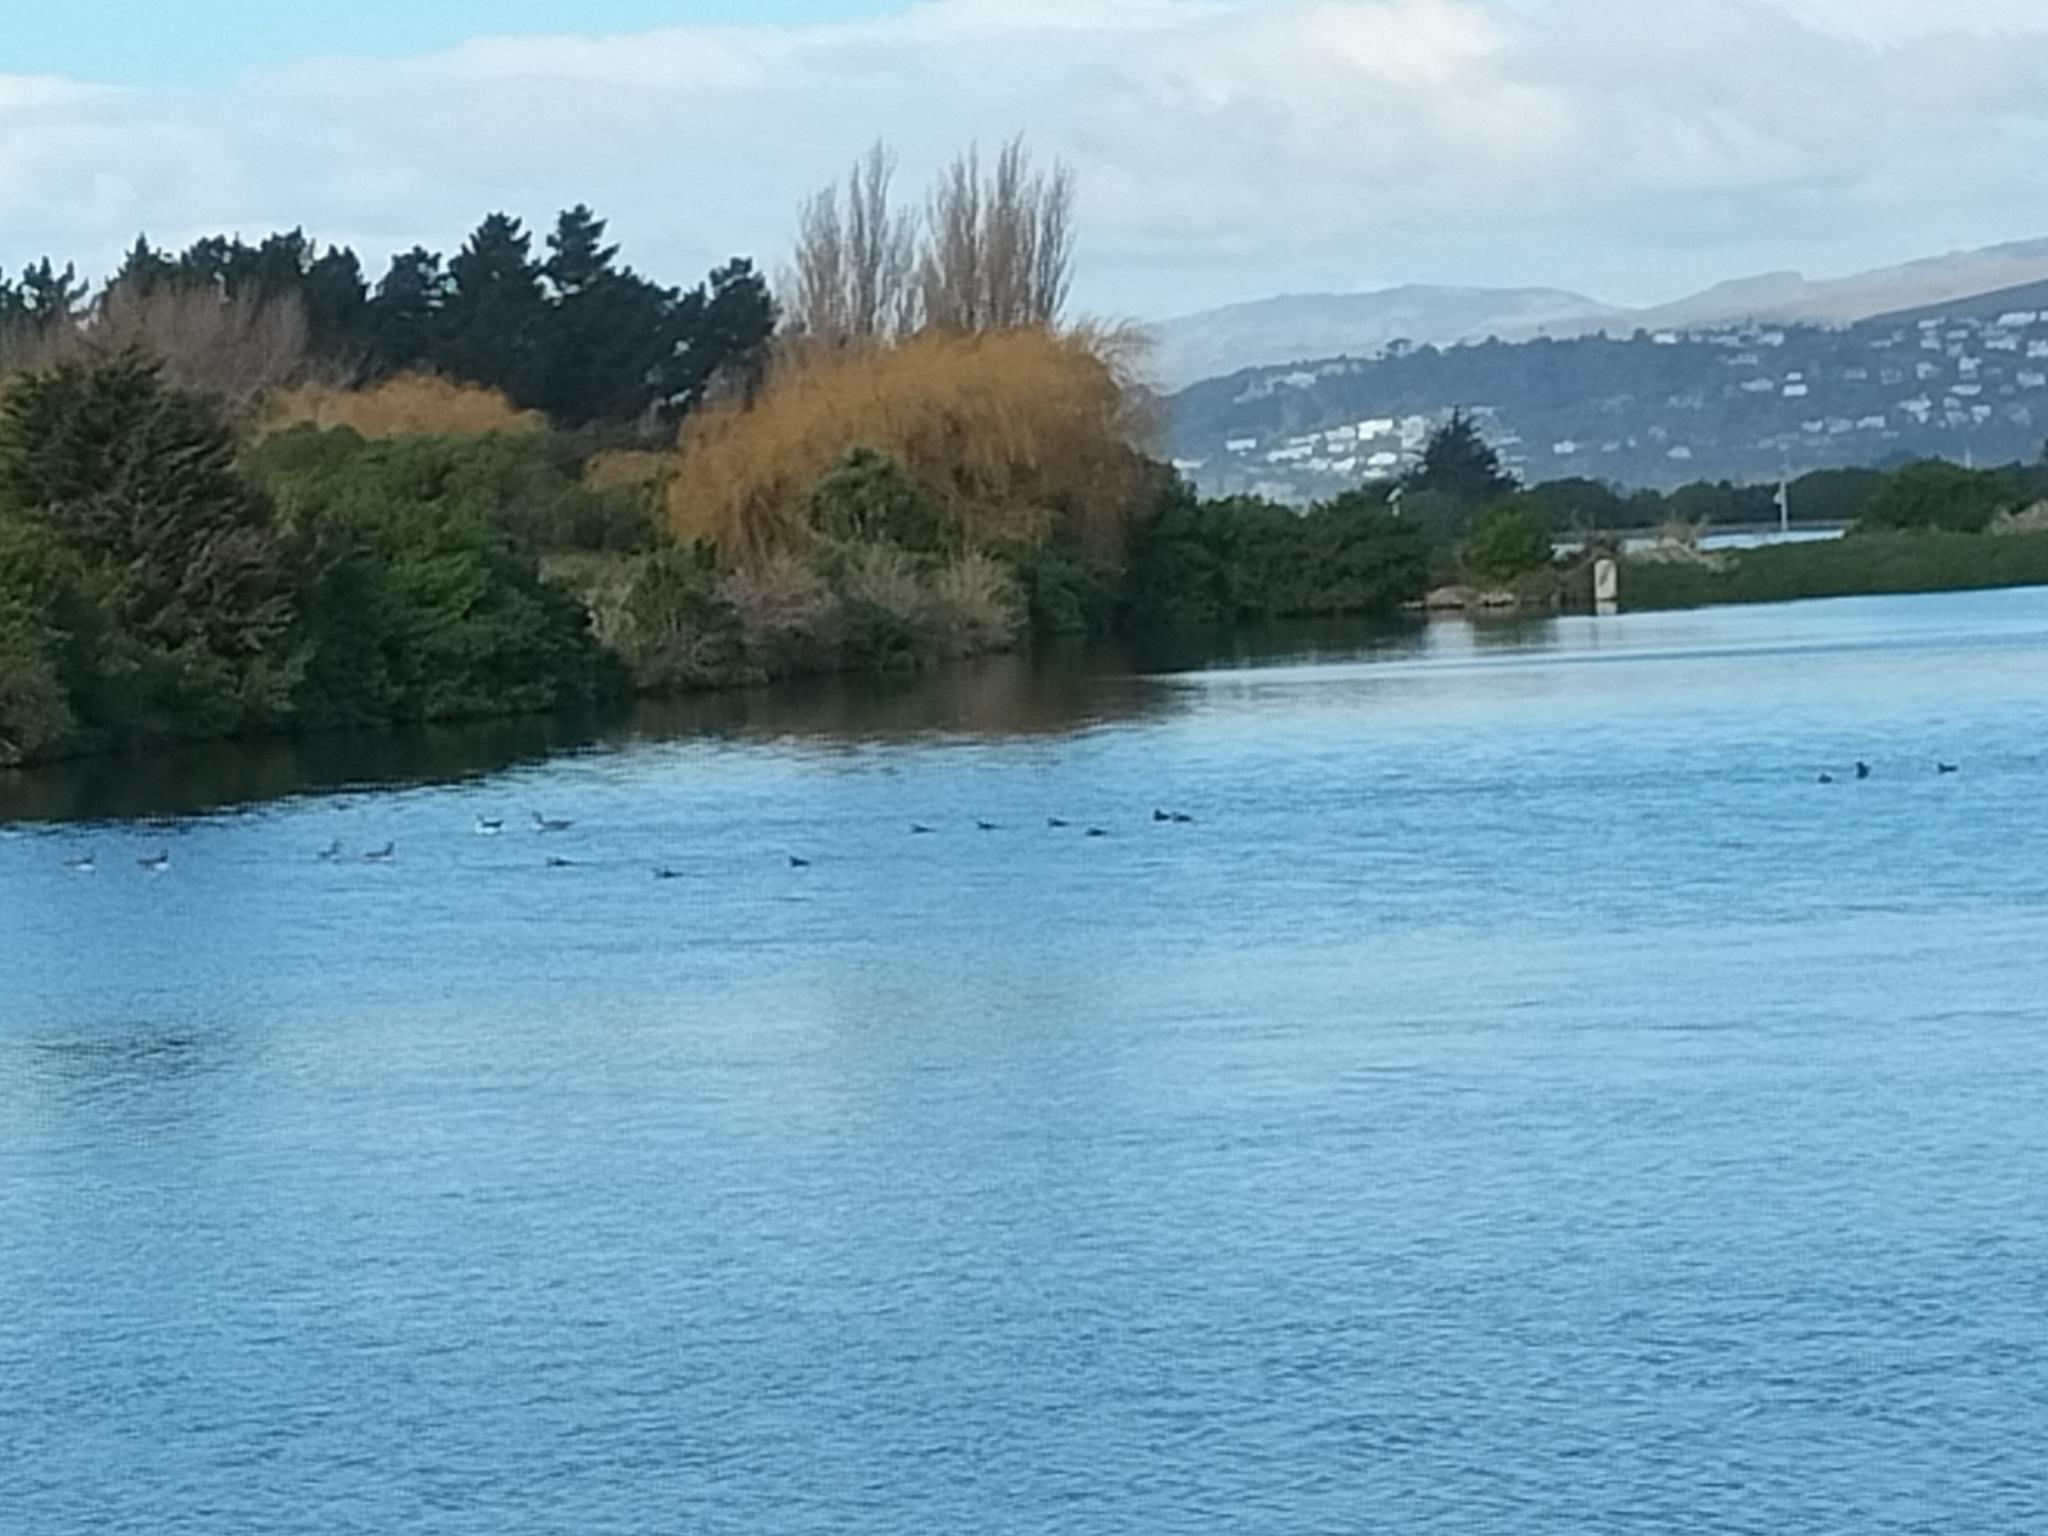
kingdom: Animalia
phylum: Chordata
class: Aves
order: Anseriformes
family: Anatidae
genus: Branta
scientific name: Branta canadensis
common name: Canada goose
